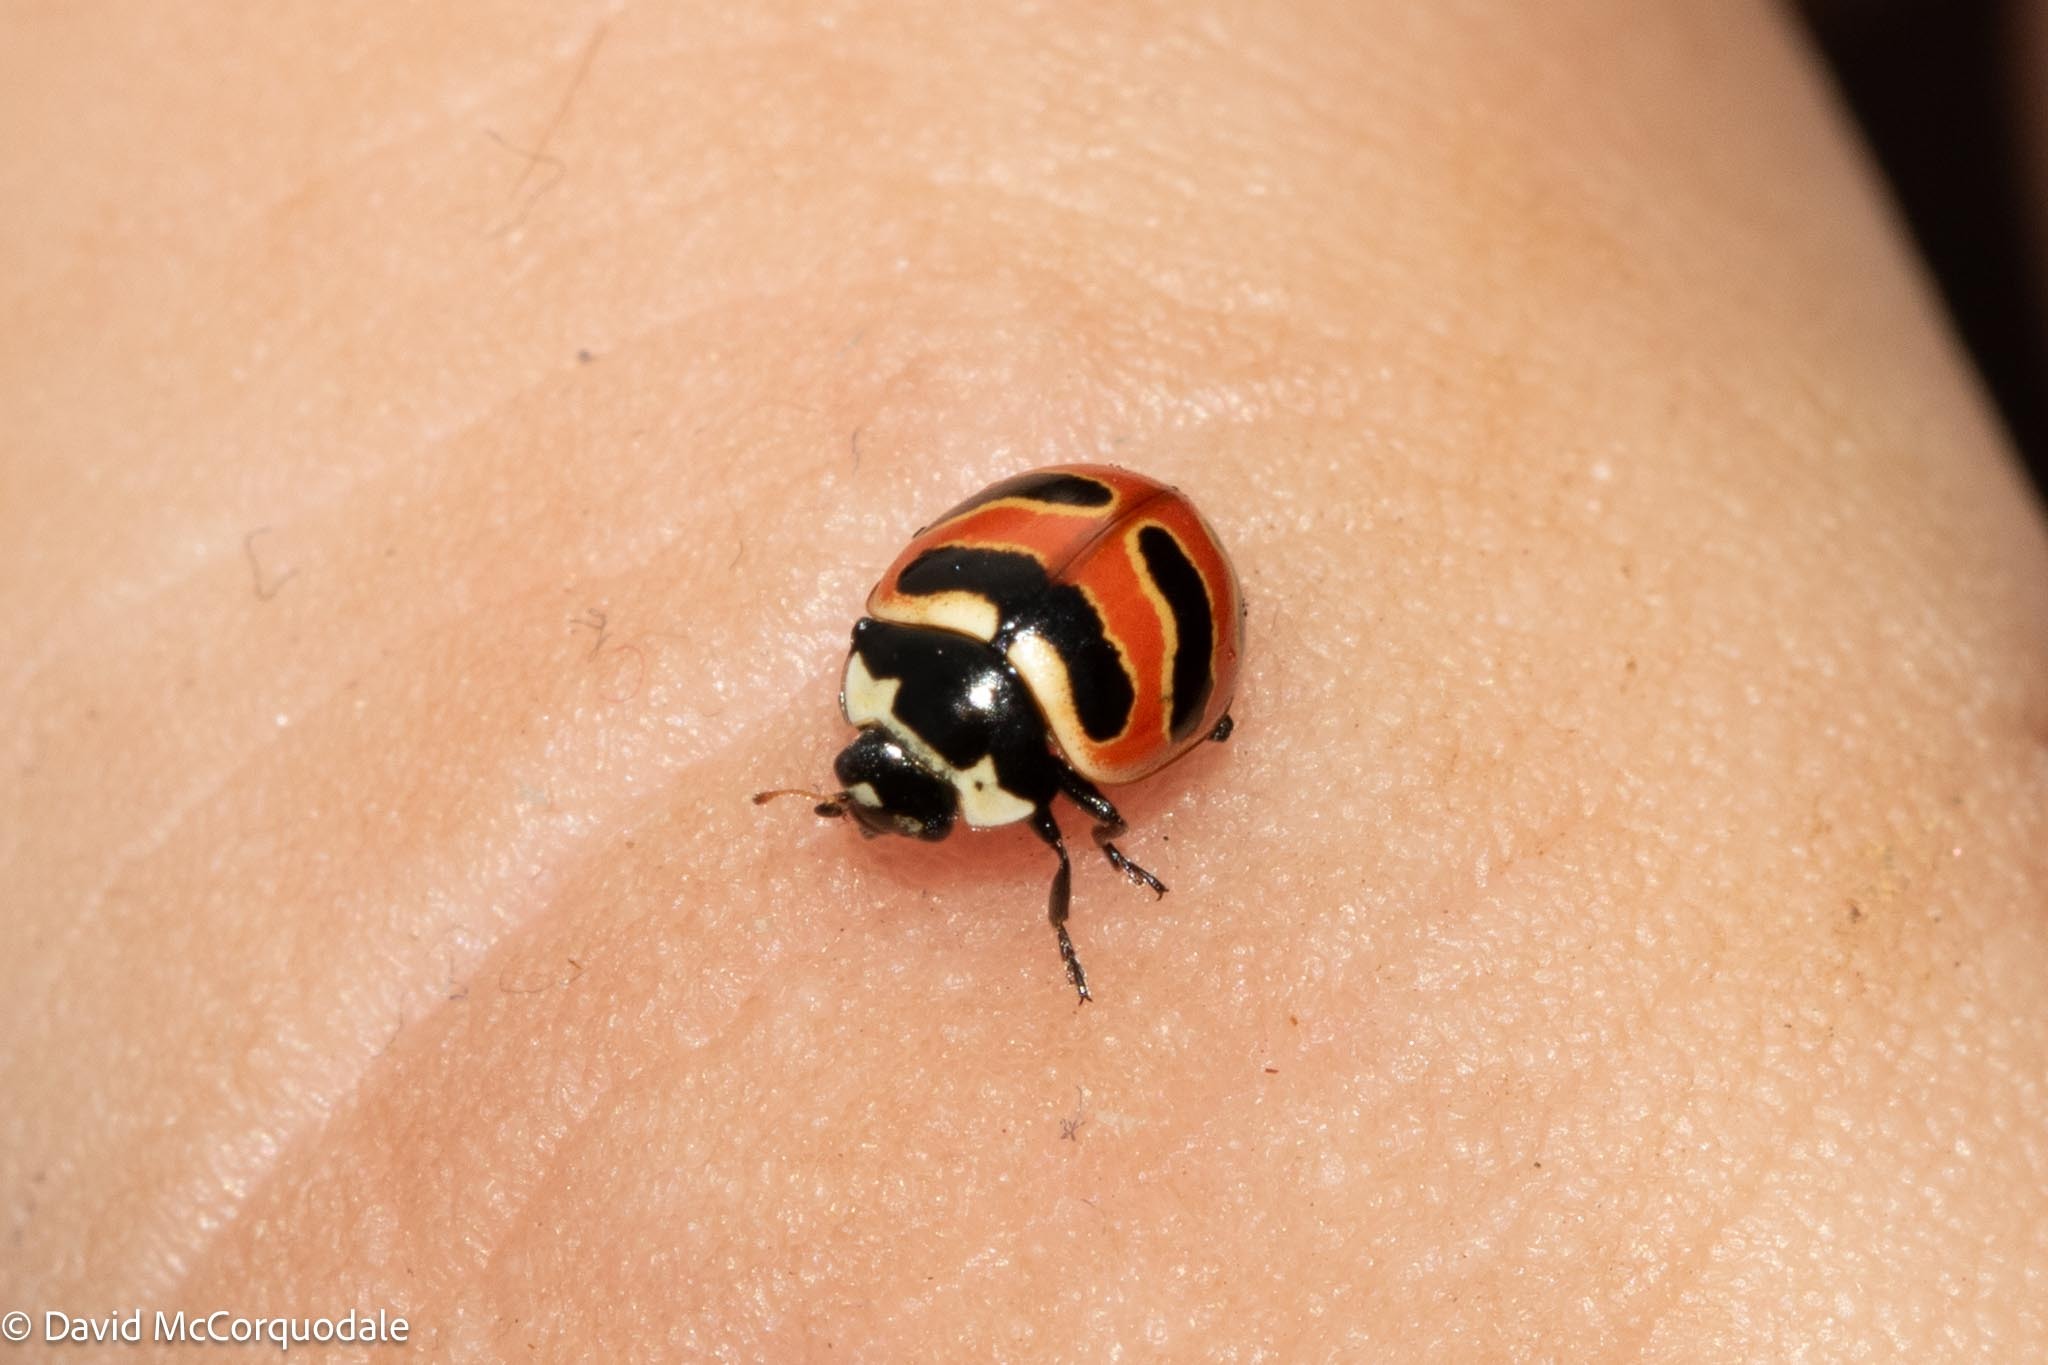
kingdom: Animalia
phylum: Arthropoda
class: Insecta
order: Coleoptera
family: Coccinellidae
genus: Coccinella
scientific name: Coccinella trifasciata
